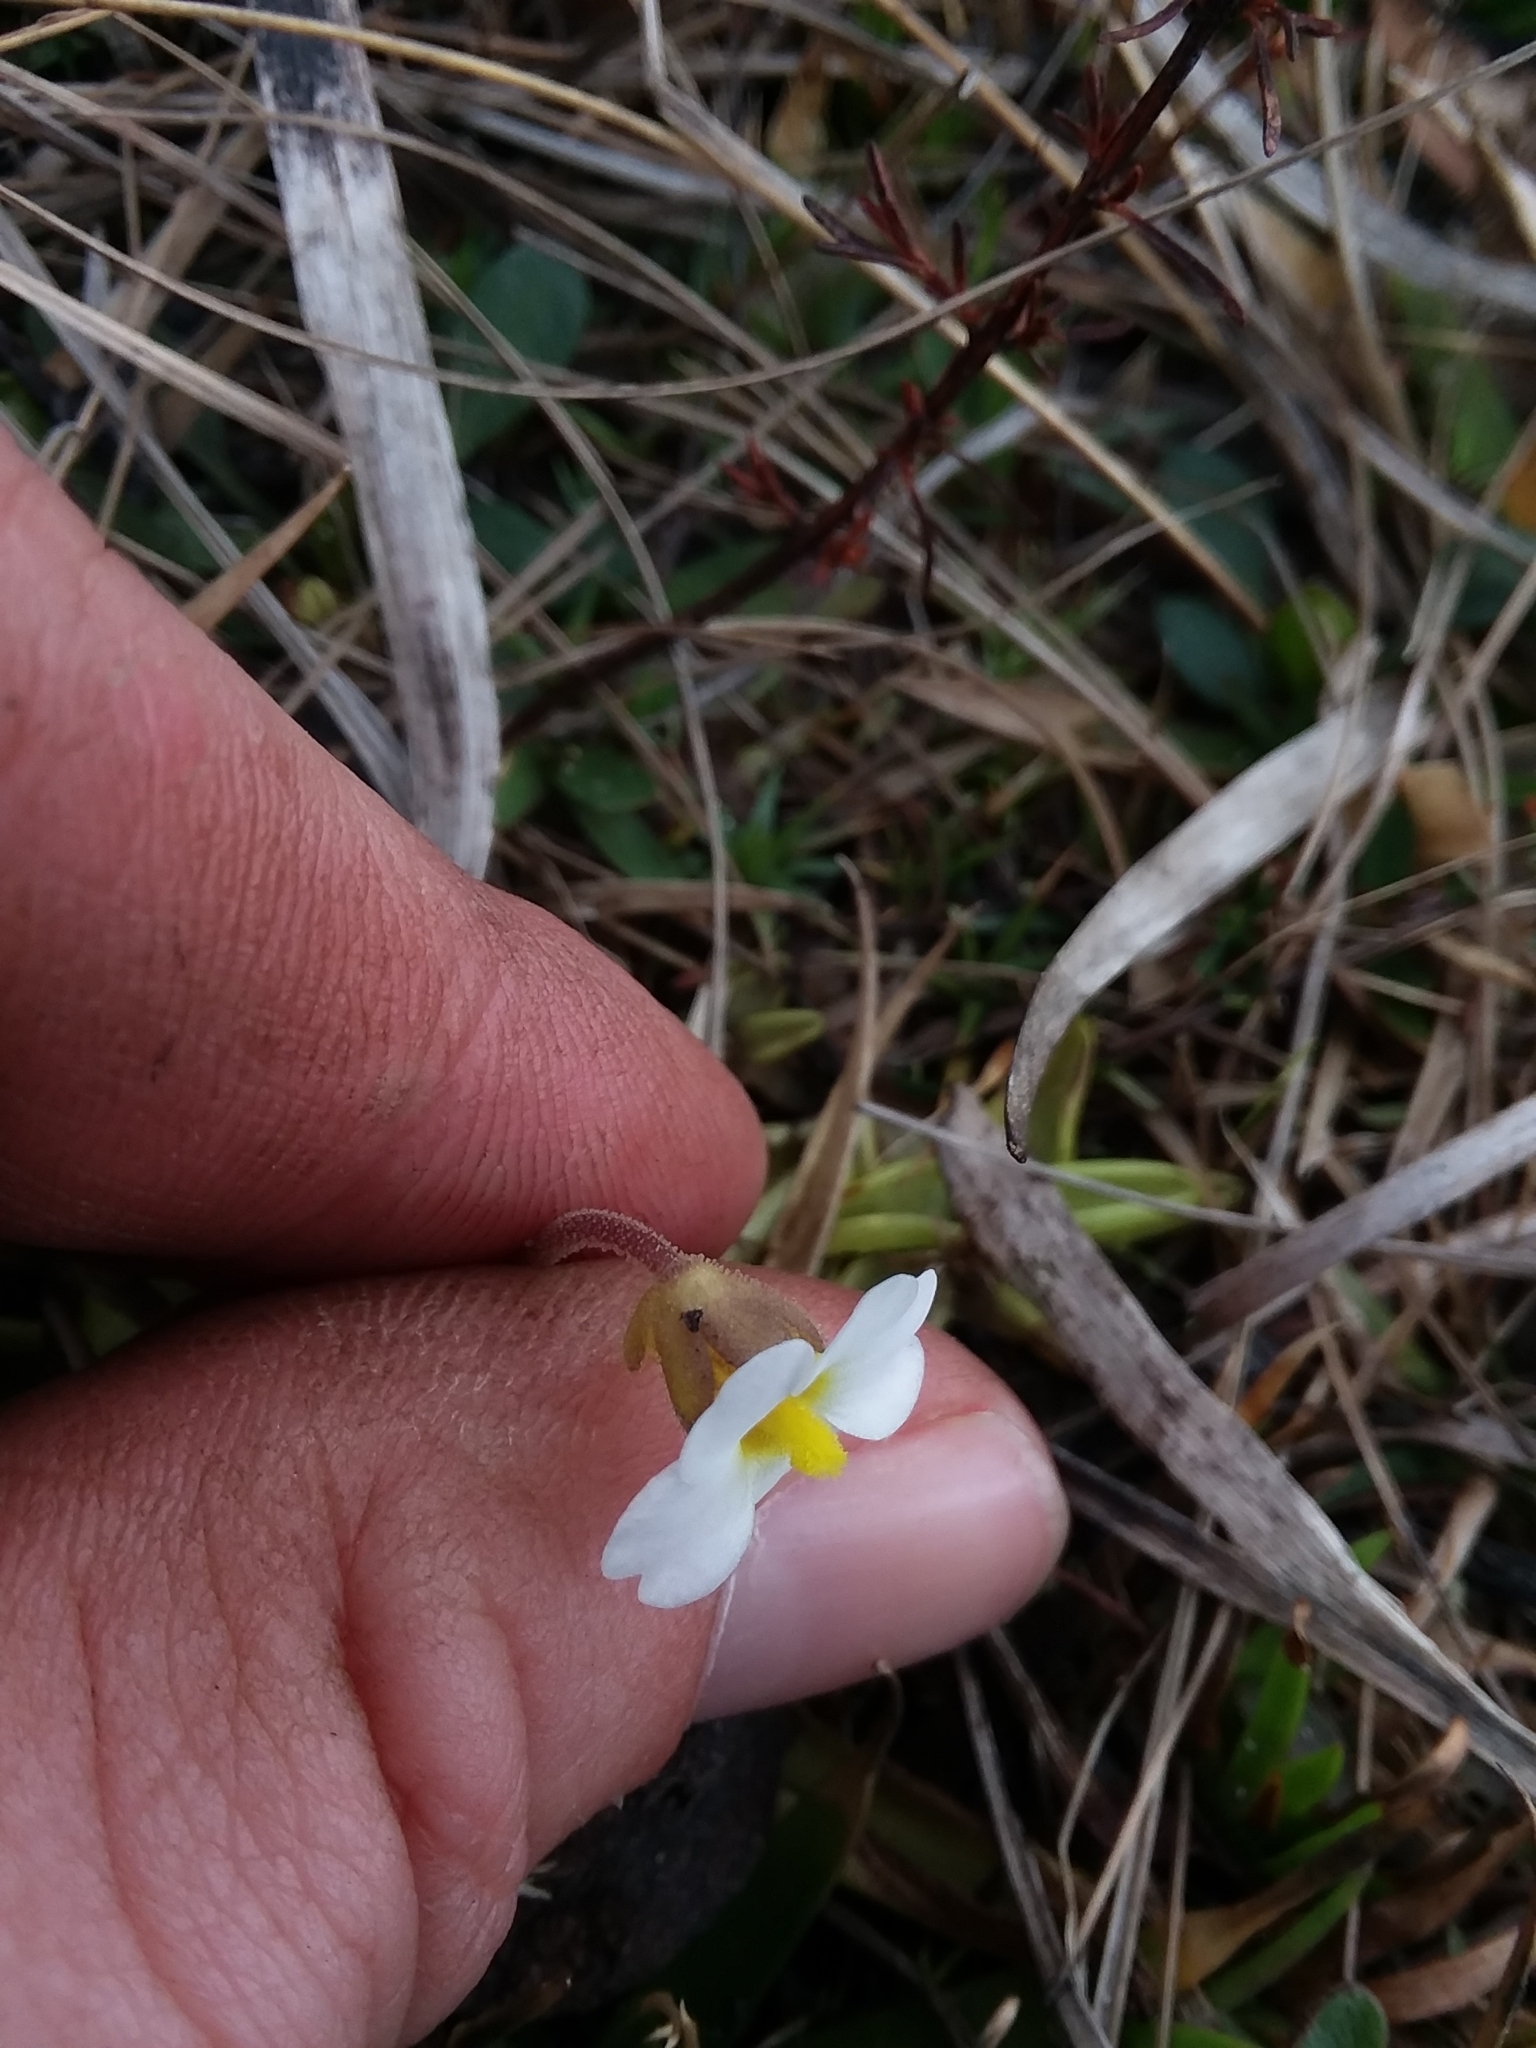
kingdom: Plantae
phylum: Tracheophyta
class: Magnoliopsida
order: Lamiales
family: Lentibulariaceae
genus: Pinguicula
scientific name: Pinguicula primuliflora
